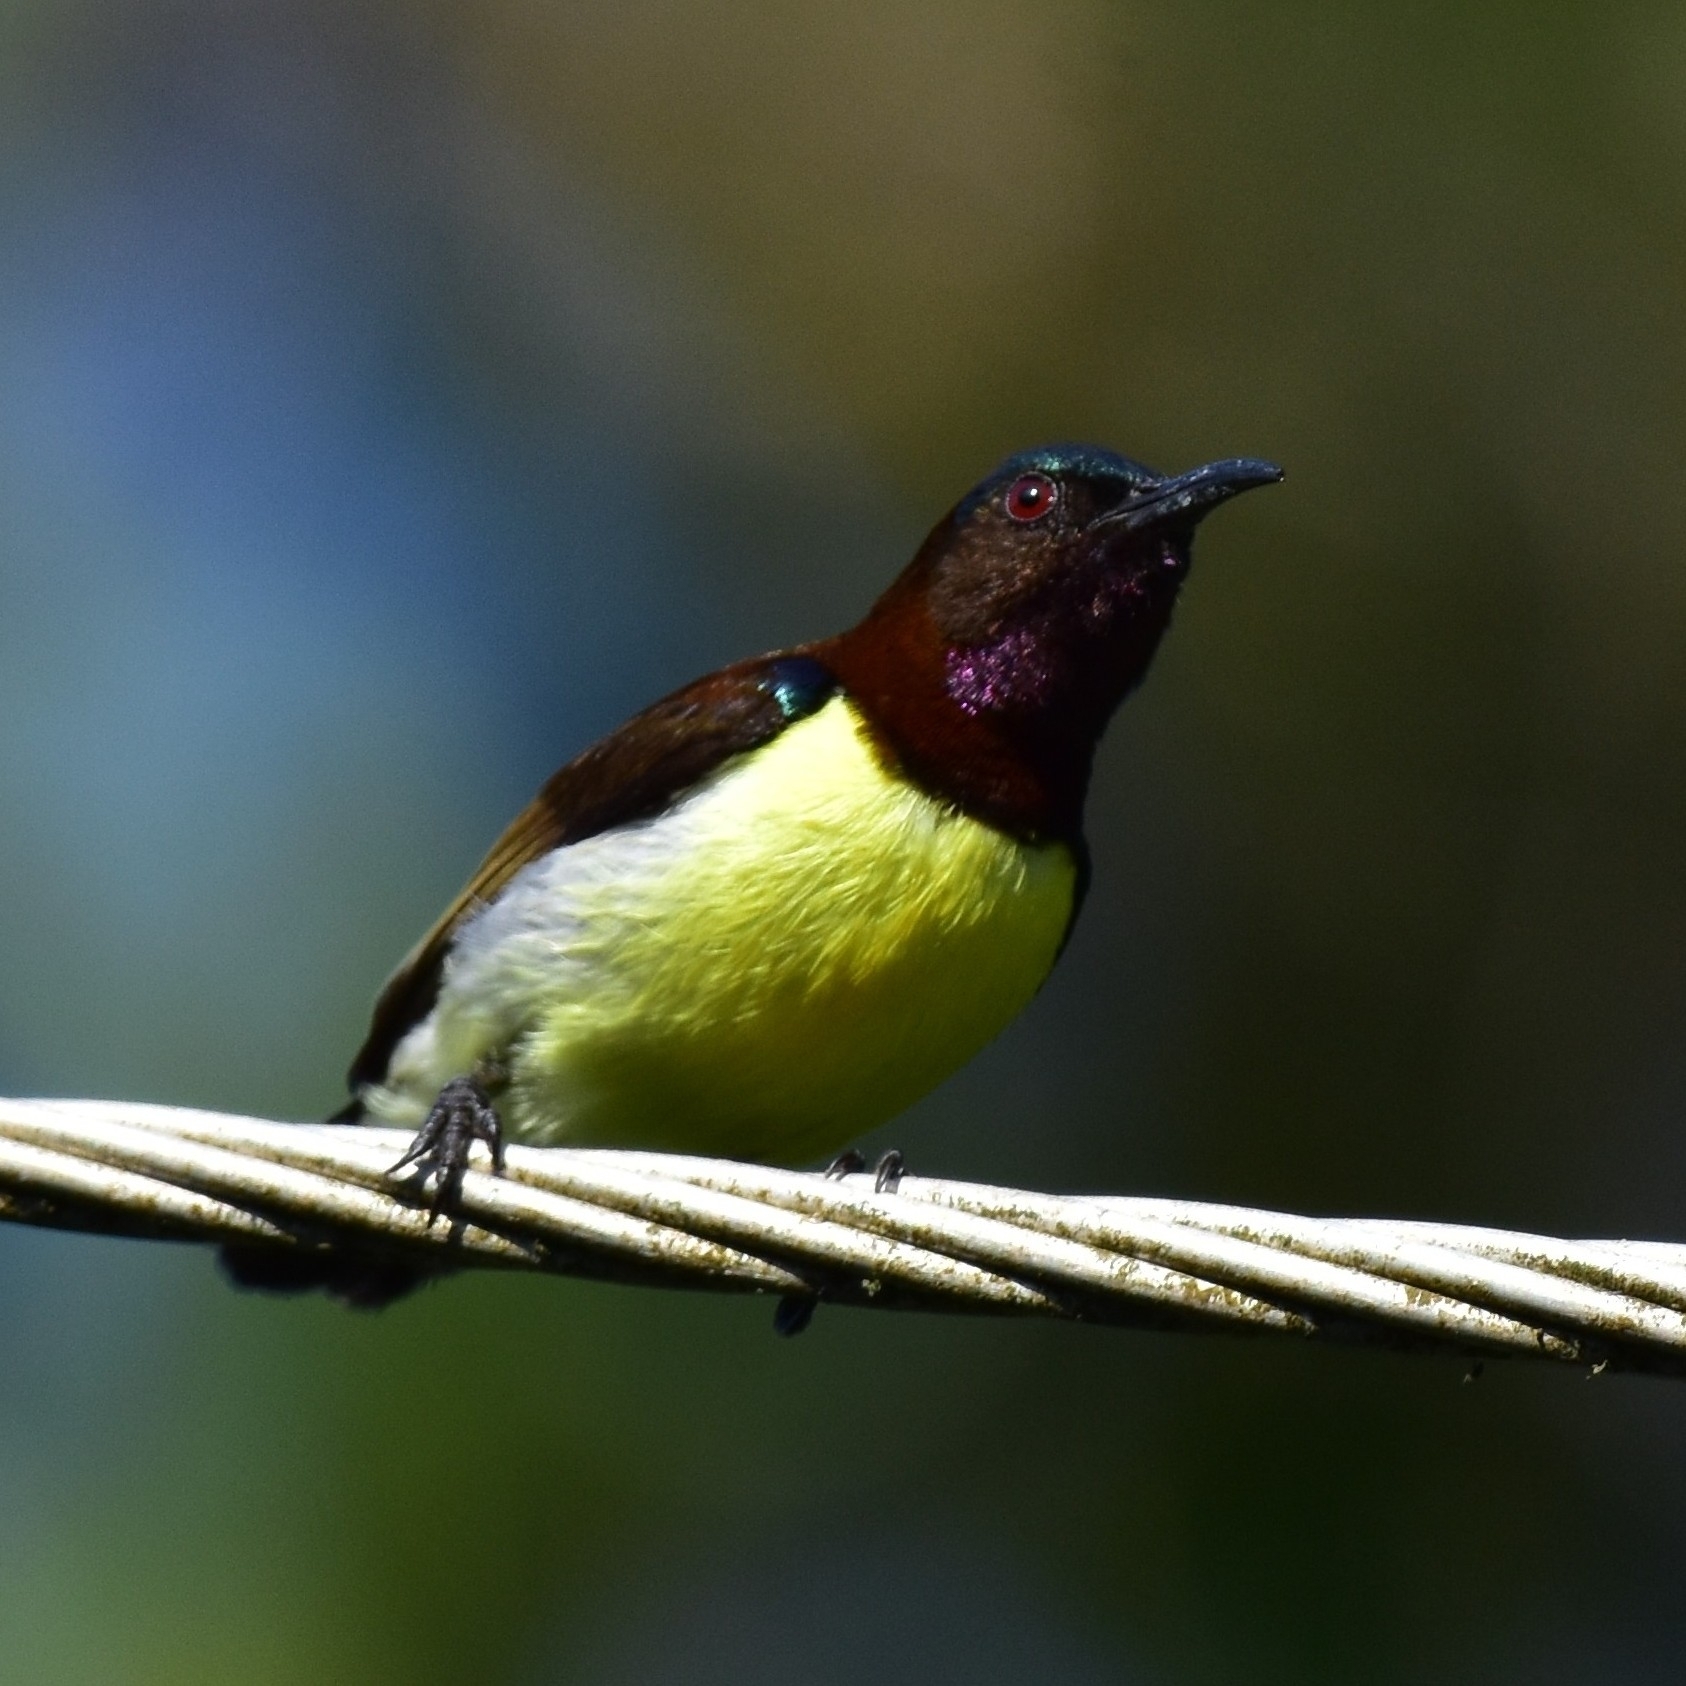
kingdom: Animalia
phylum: Chordata
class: Aves
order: Passeriformes
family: Nectariniidae
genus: Leptocoma
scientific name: Leptocoma zeylonica
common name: Purple-rumped sunbird
